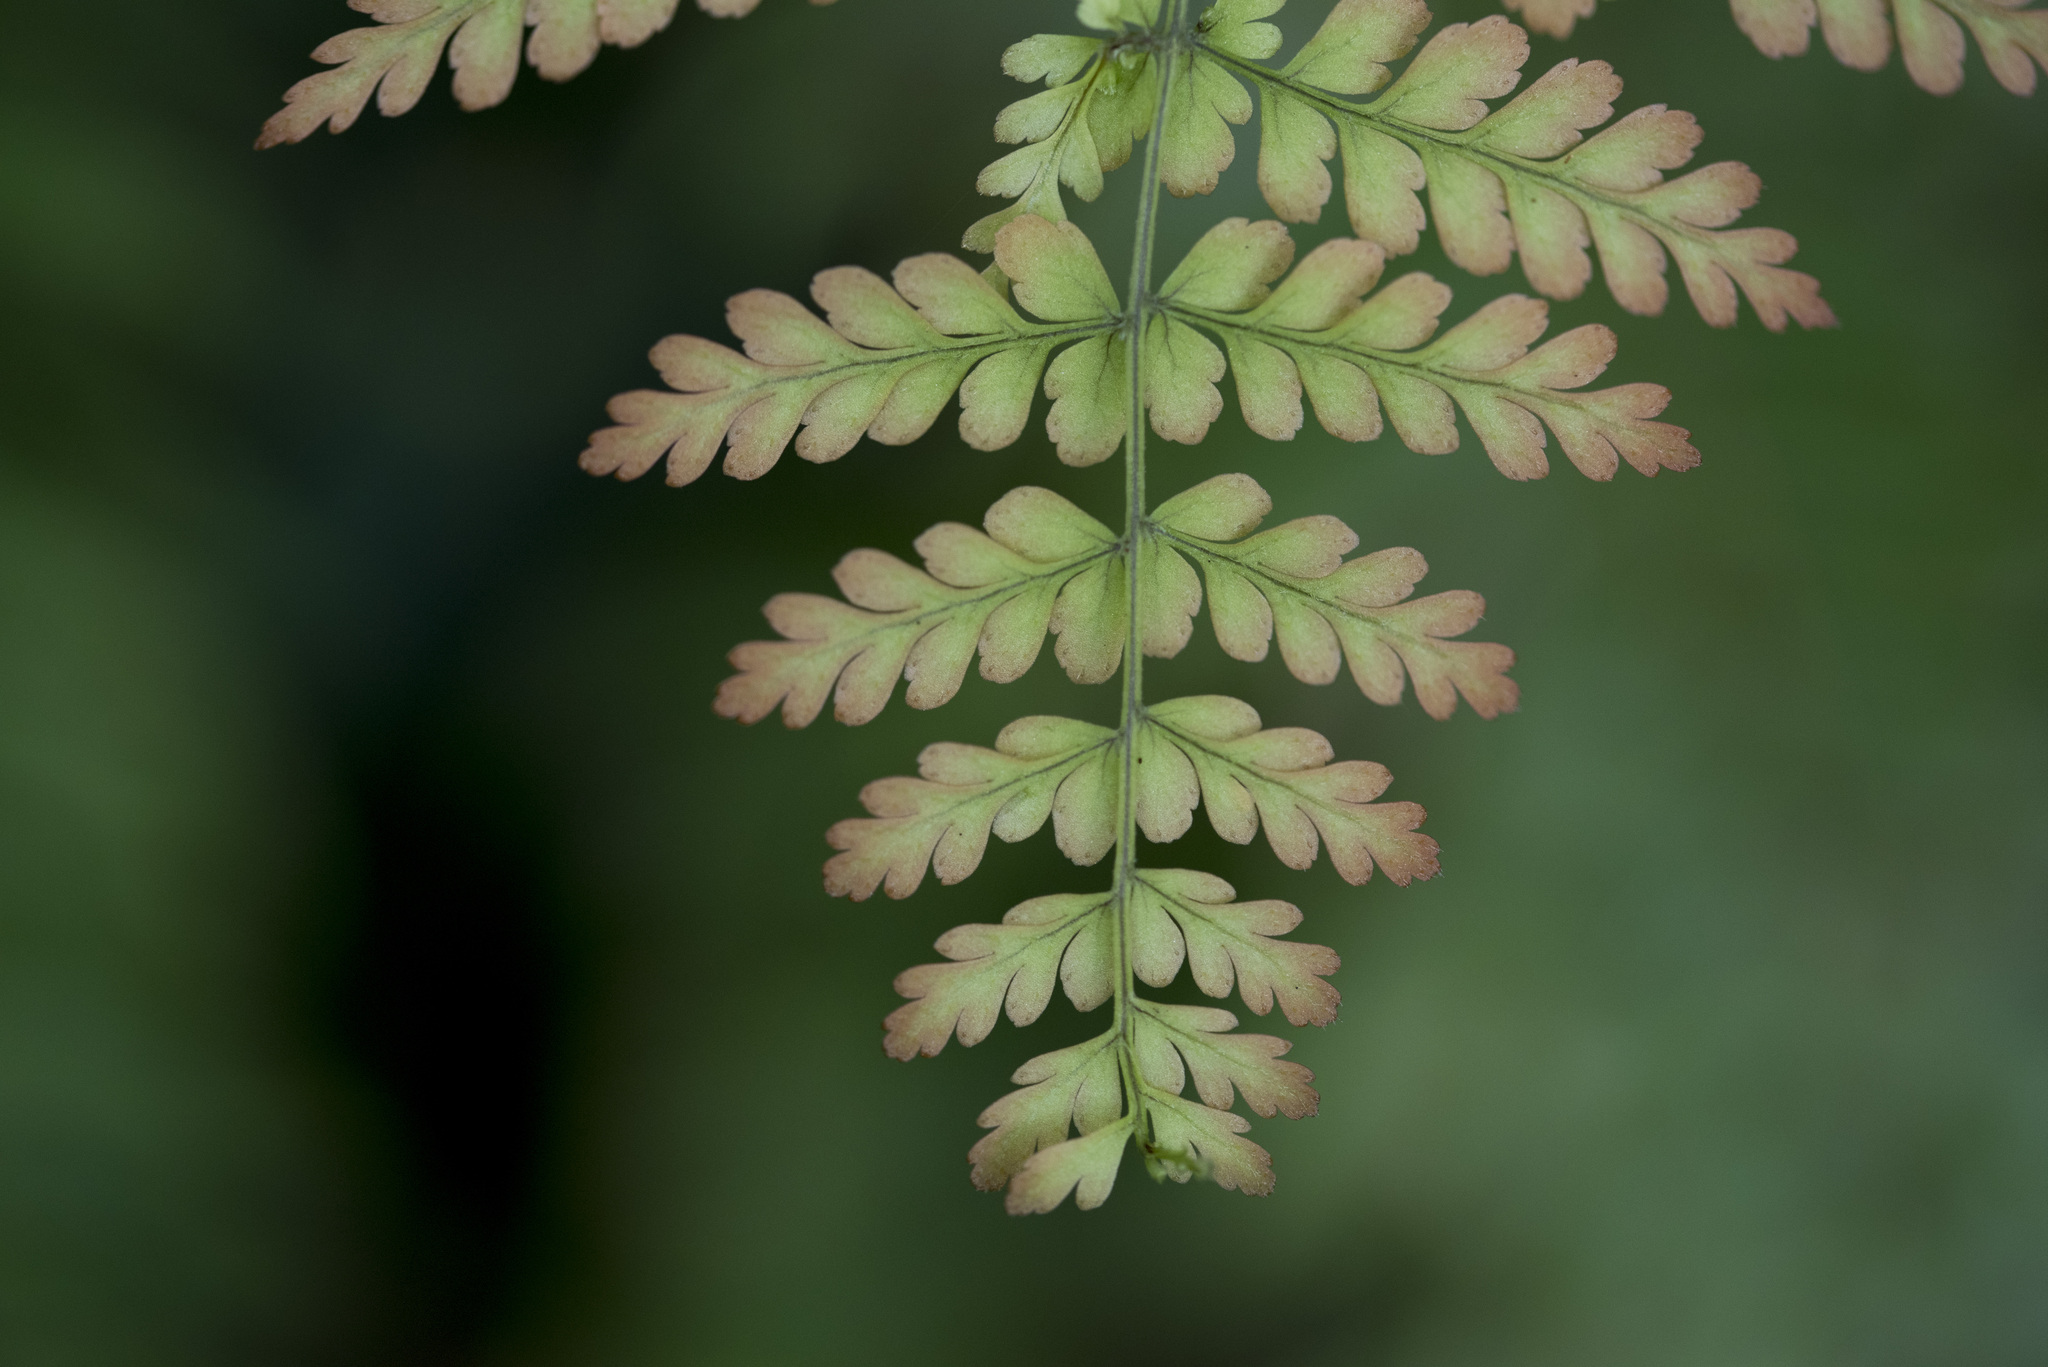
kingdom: Plantae
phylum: Tracheophyta
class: Polypodiopsida
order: Polypodiales
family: Dryopteridaceae
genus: Dryopteris
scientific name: Dryopteris paleolata
